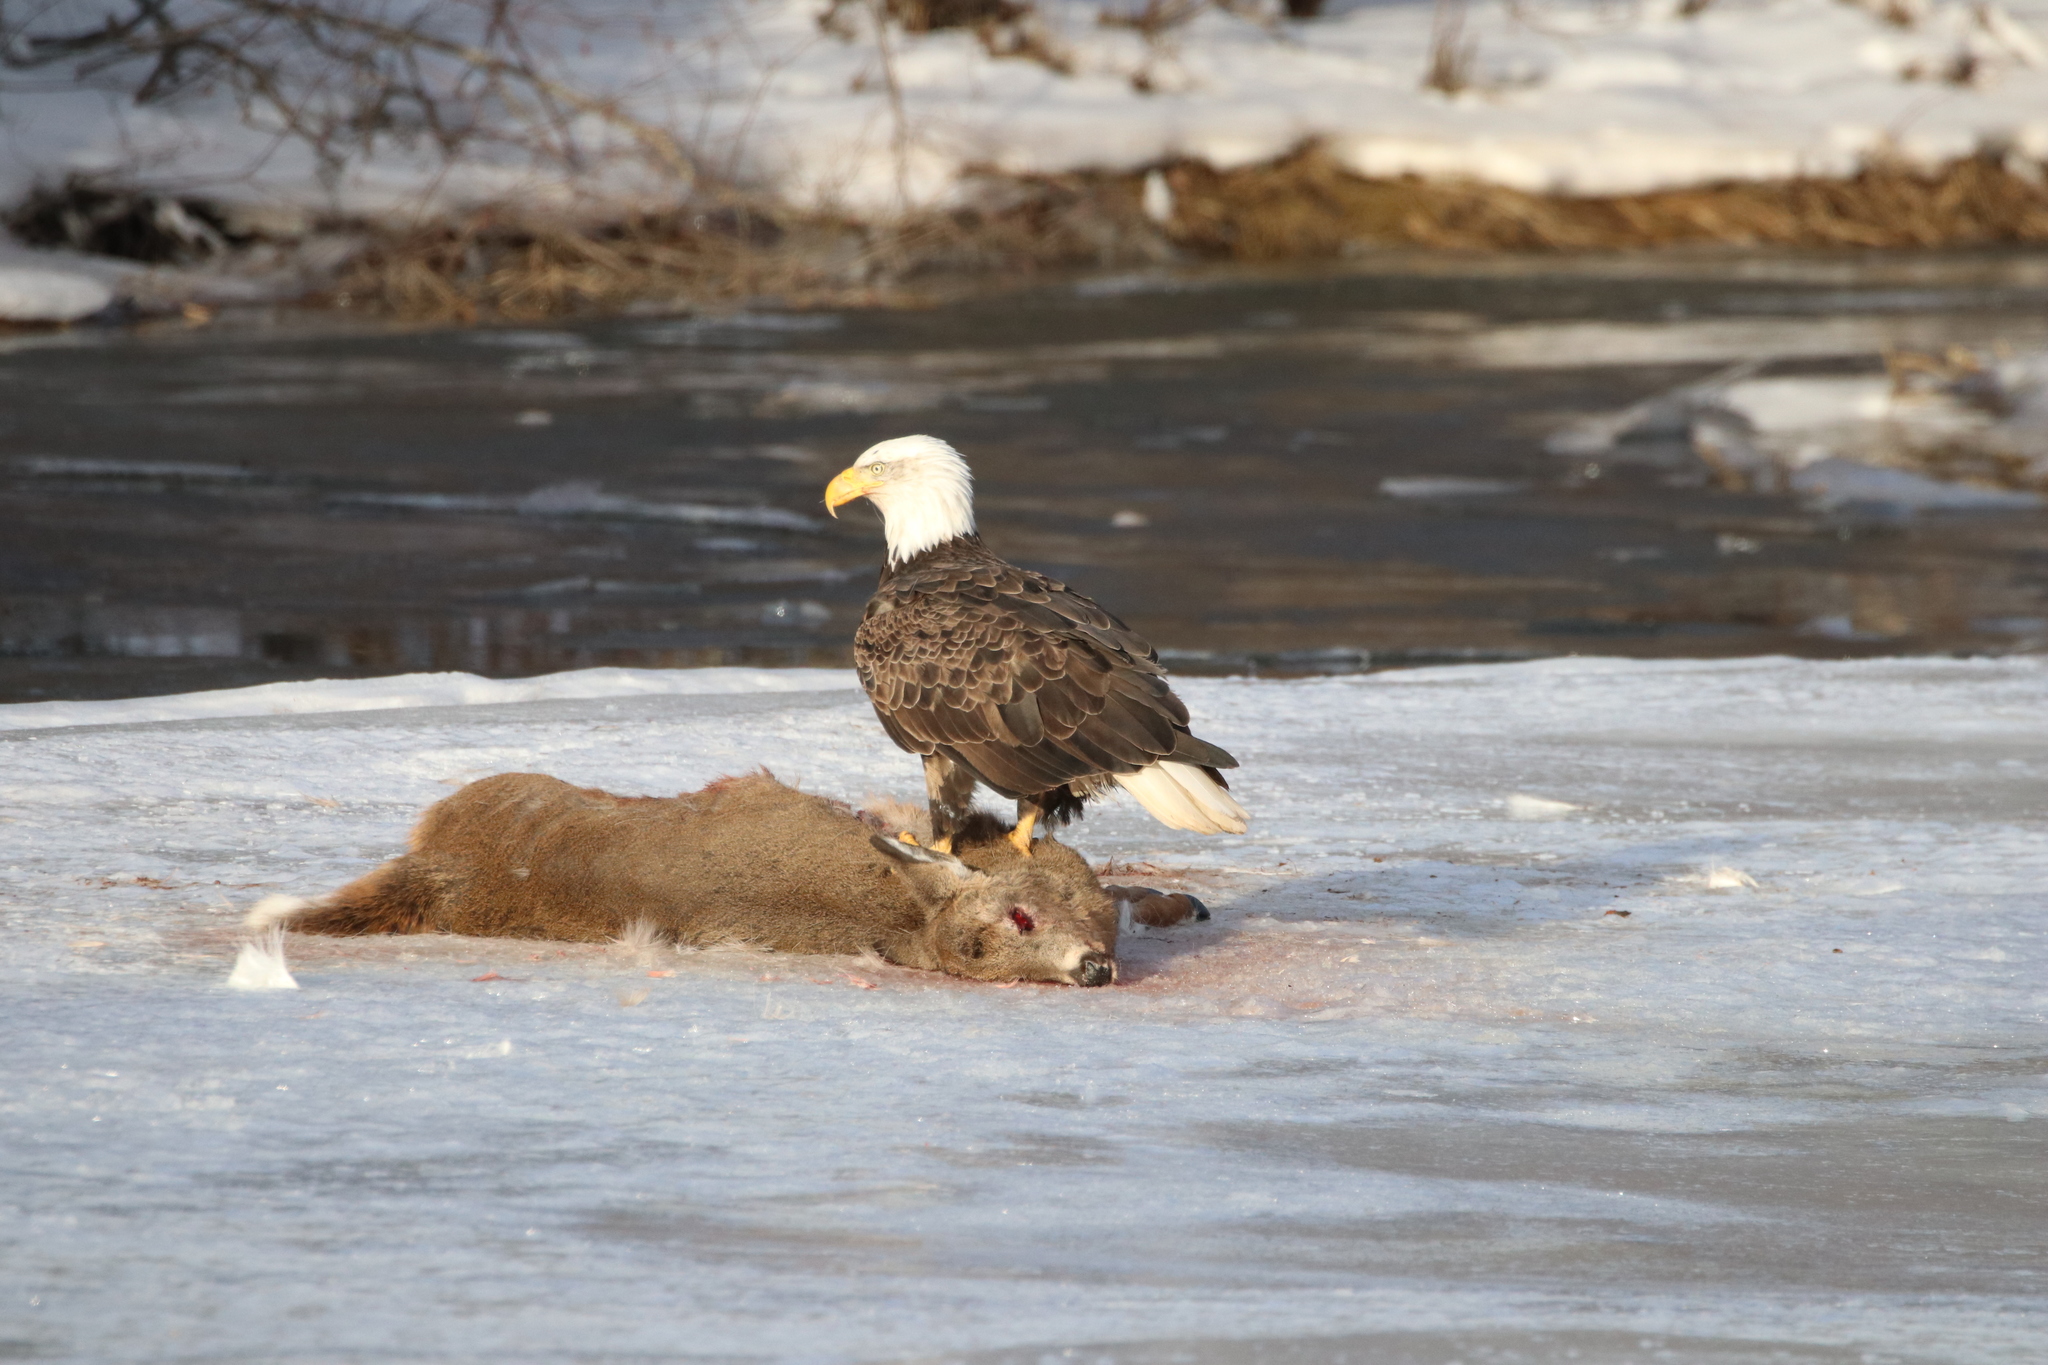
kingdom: Animalia
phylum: Chordata
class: Mammalia
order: Artiodactyla
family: Cervidae
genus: Odocoileus
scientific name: Odocoileus virginianus
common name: White-tailed deer
